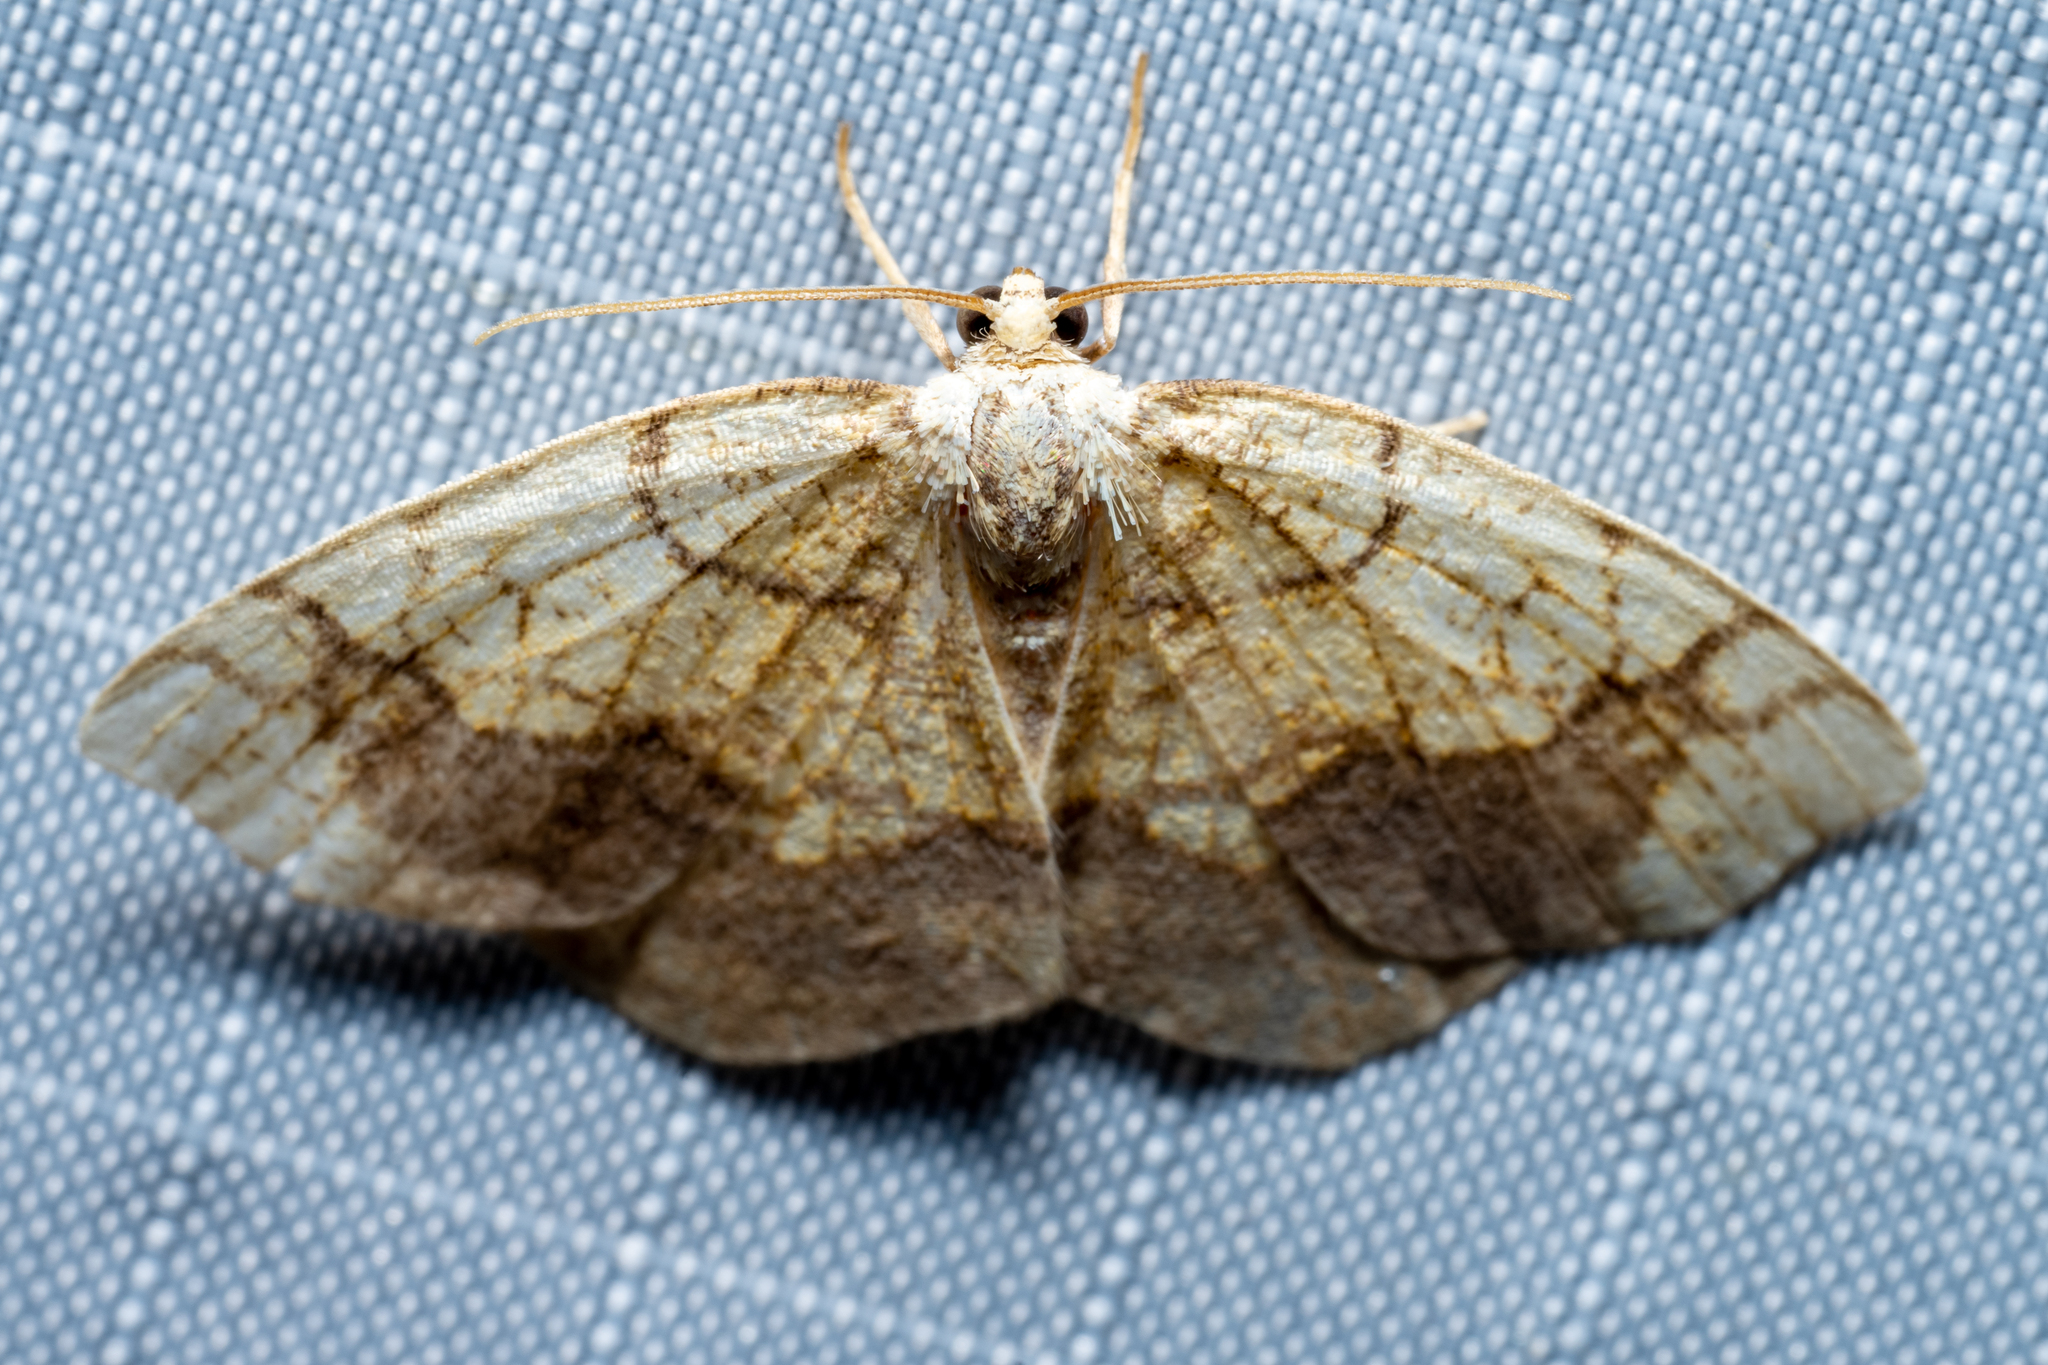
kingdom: Animalia
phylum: Arthropoda
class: Insecta
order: Lepidoptera
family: Geometridae
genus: Nematocampa
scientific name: Nematocampa resistaria
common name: Horned spanworm moth
